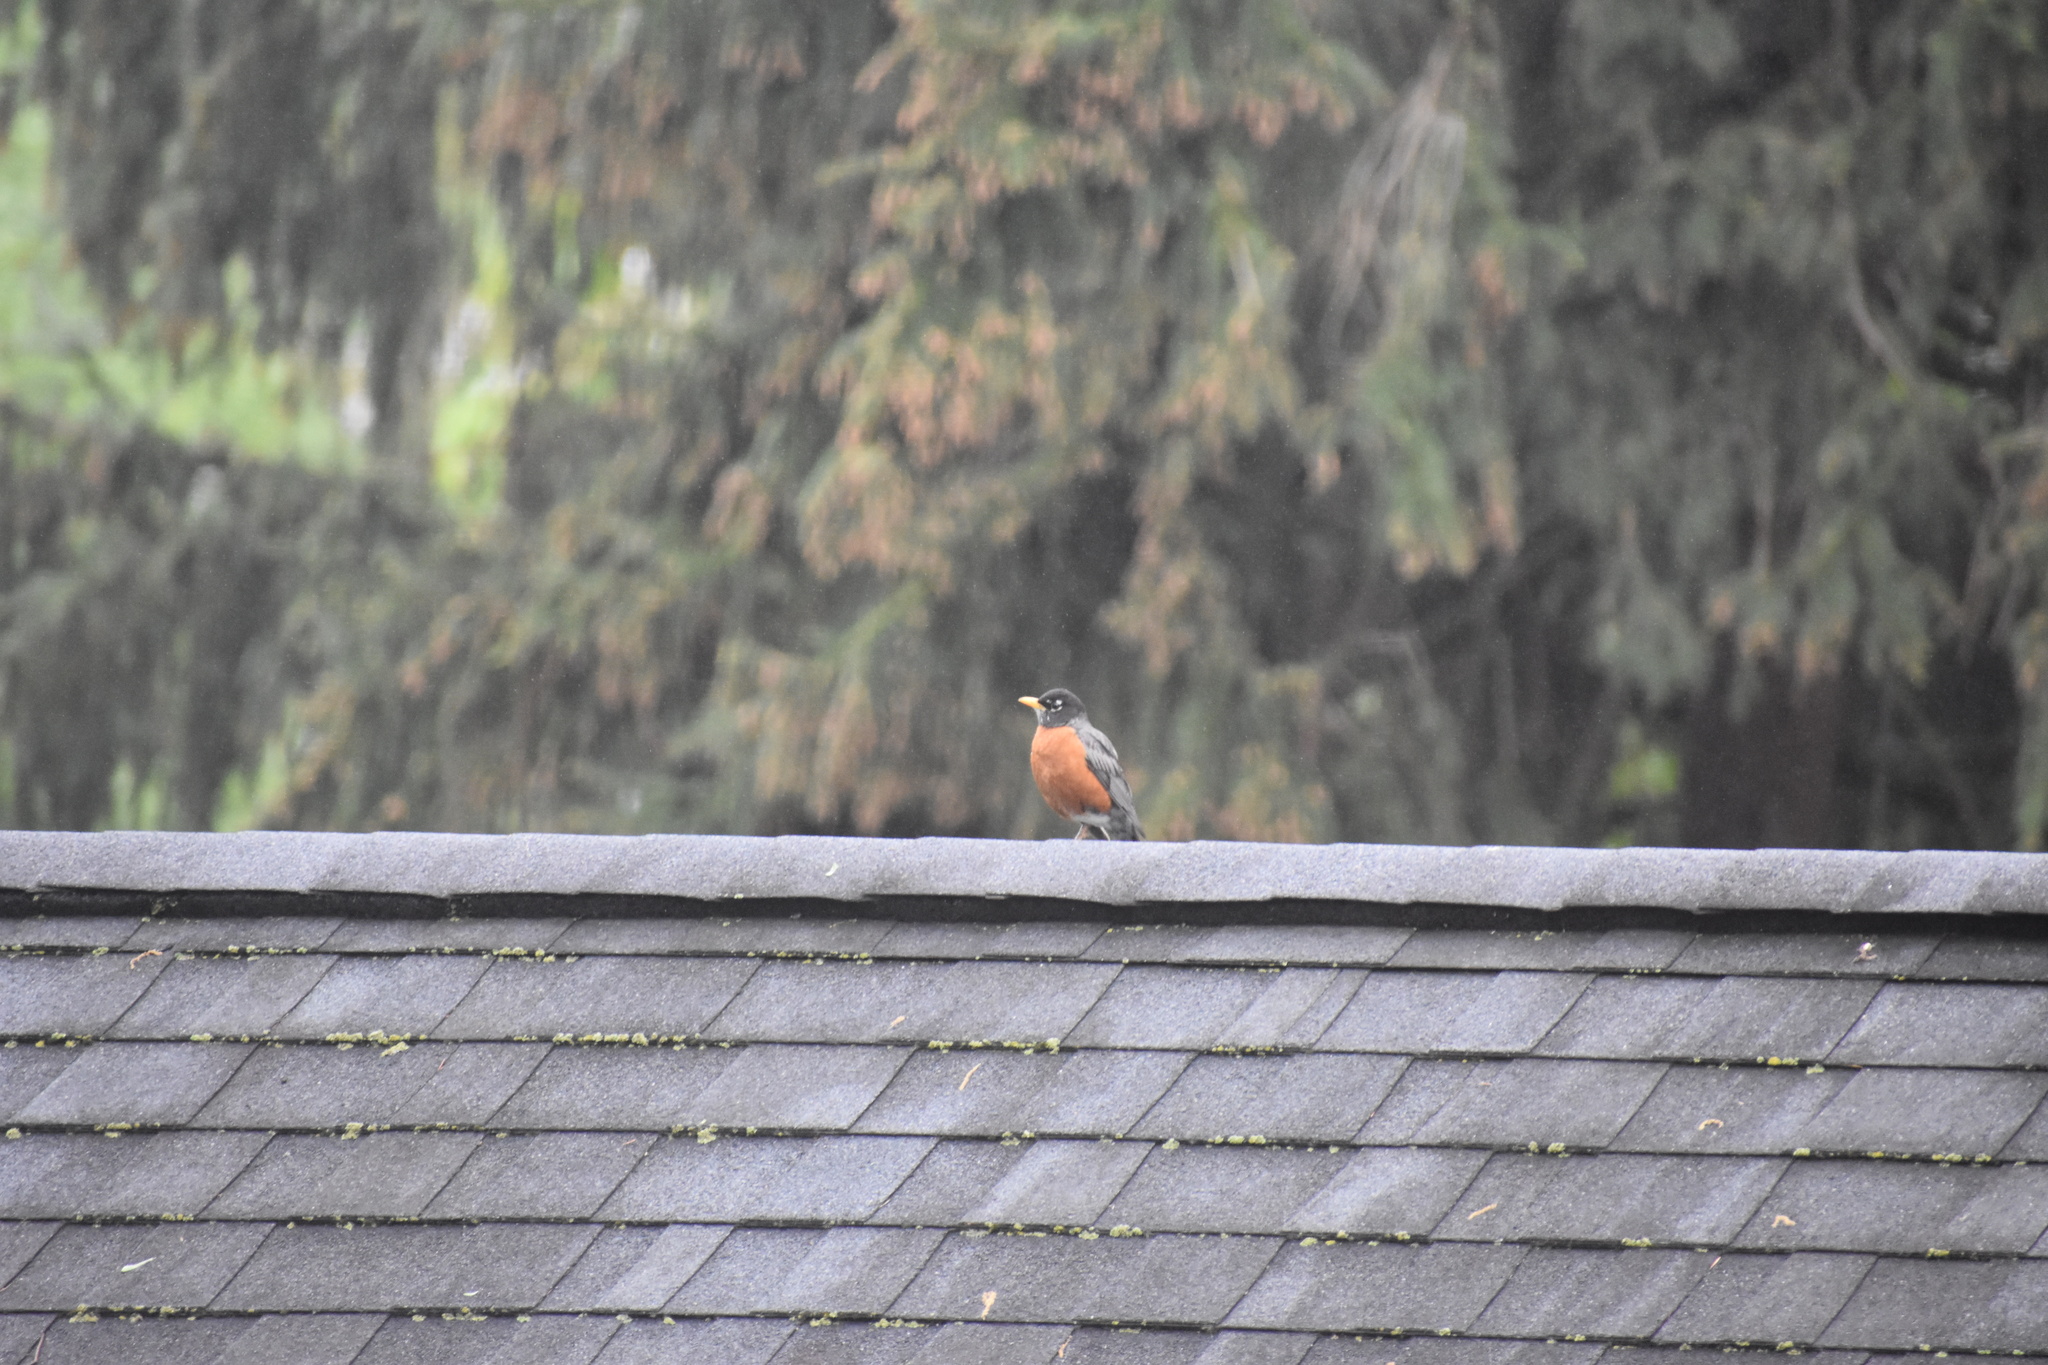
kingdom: Animalia
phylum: Chordata
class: Aves
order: Passeriformes
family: Turdidae
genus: Turdus
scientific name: Turdus migratorius
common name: American robin
